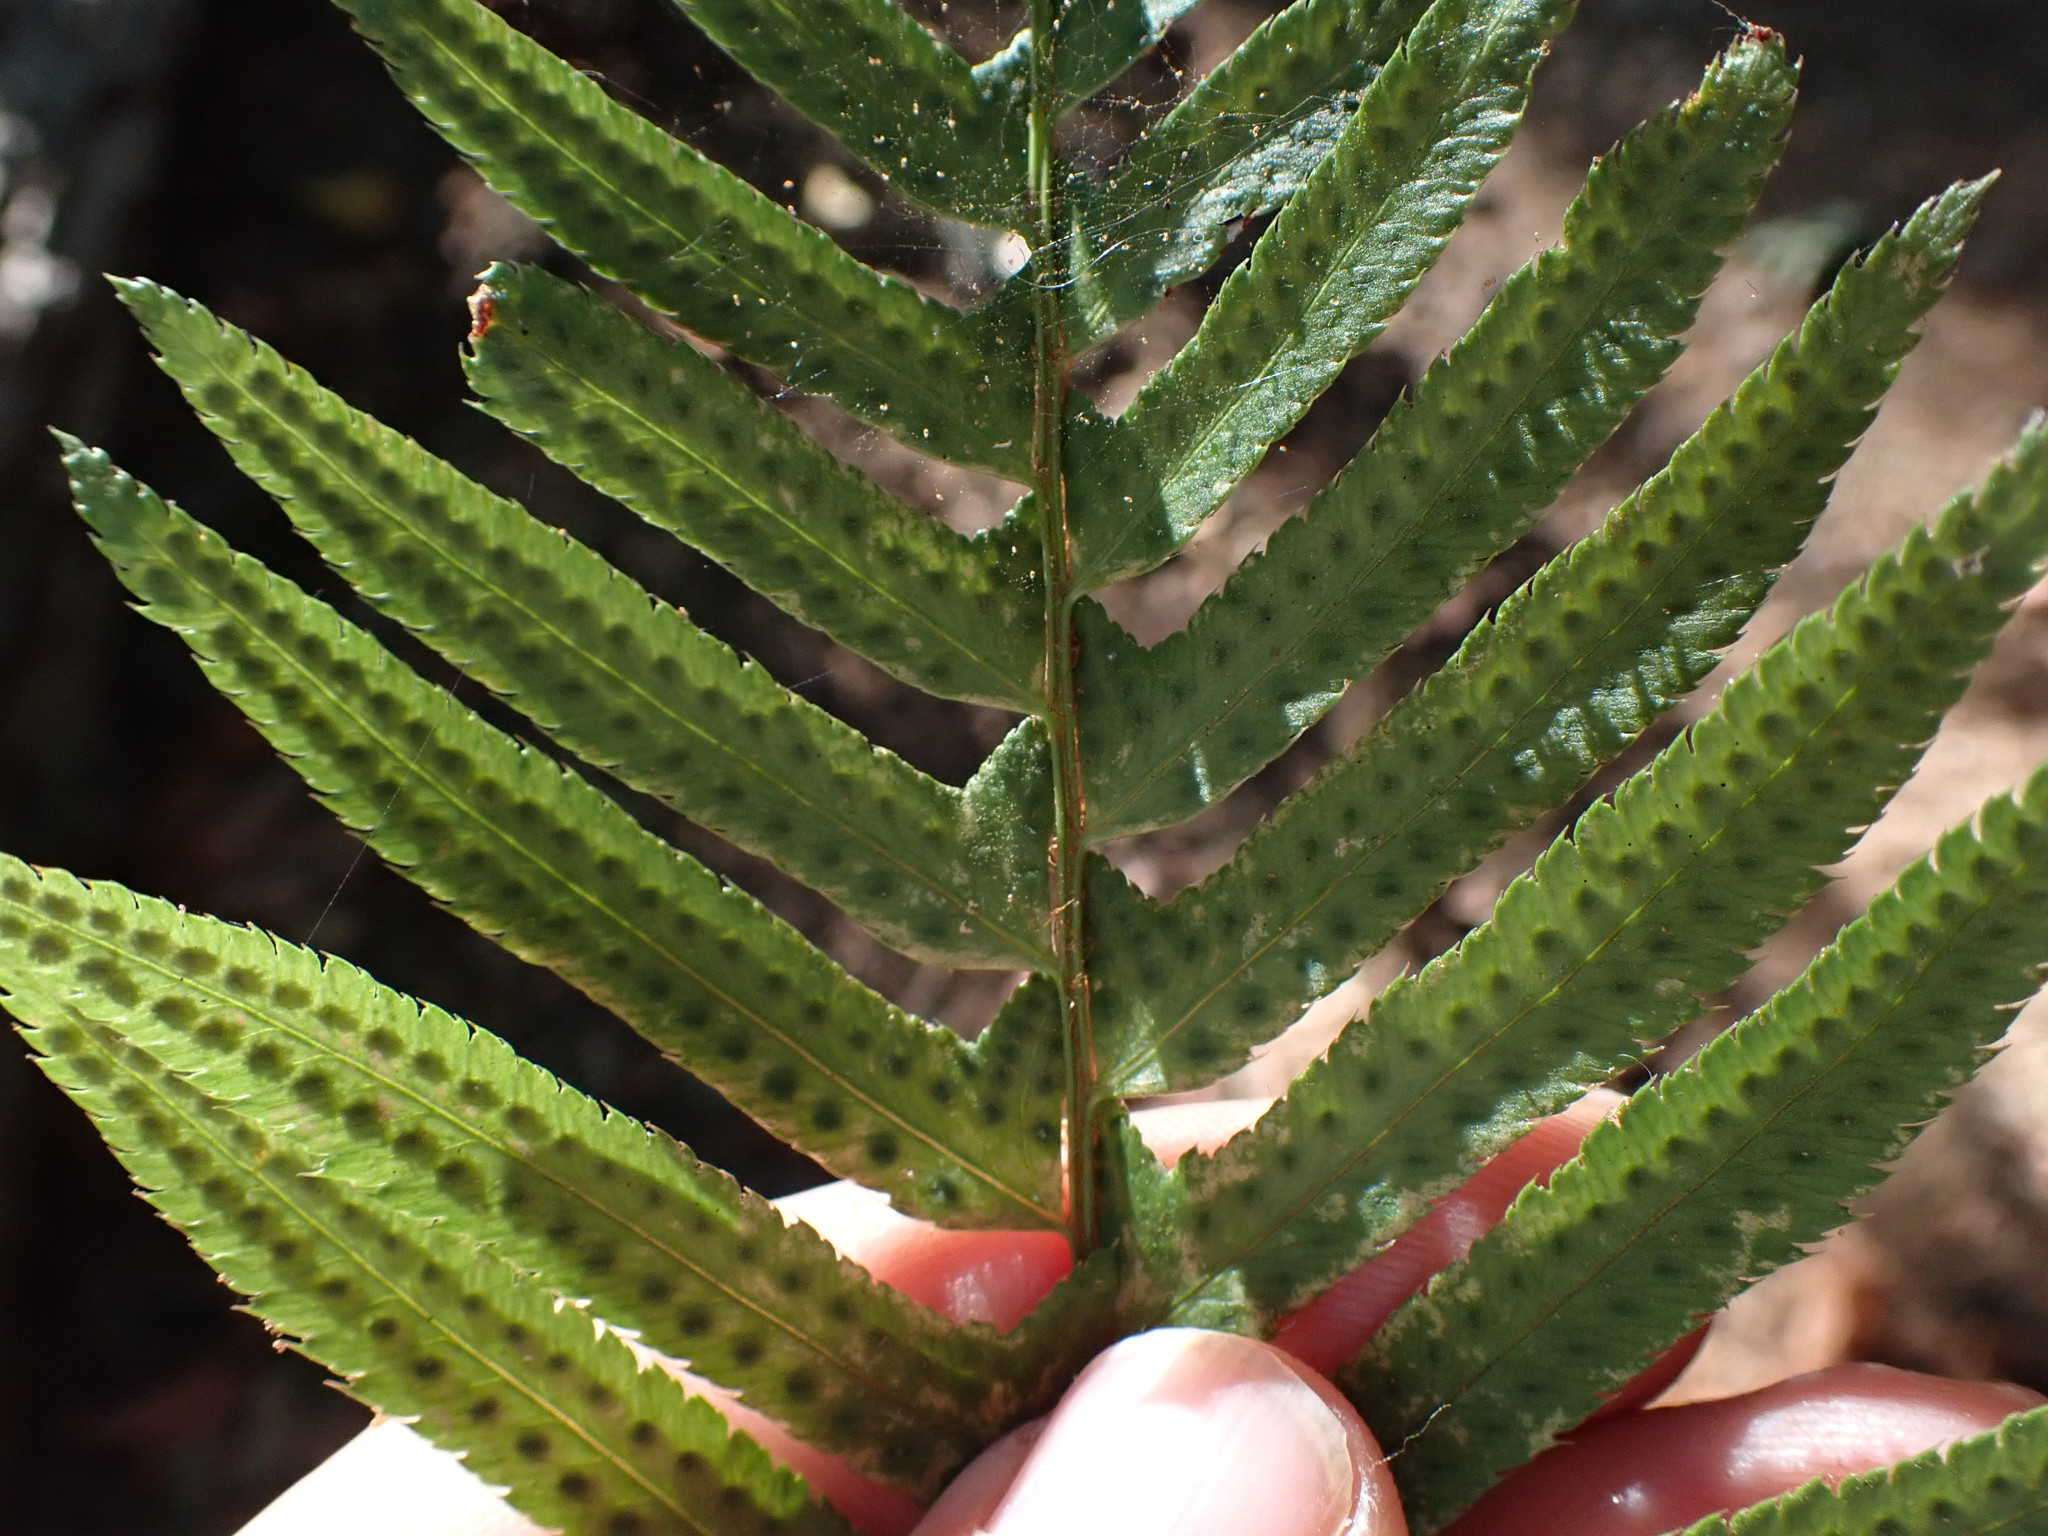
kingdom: Plantae
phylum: Tracheophyta
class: Polypodiopsida
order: Polypodiales
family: Dryopteridaceae
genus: Polystichum
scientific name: Polystichum munitum
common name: Western sword-fern
